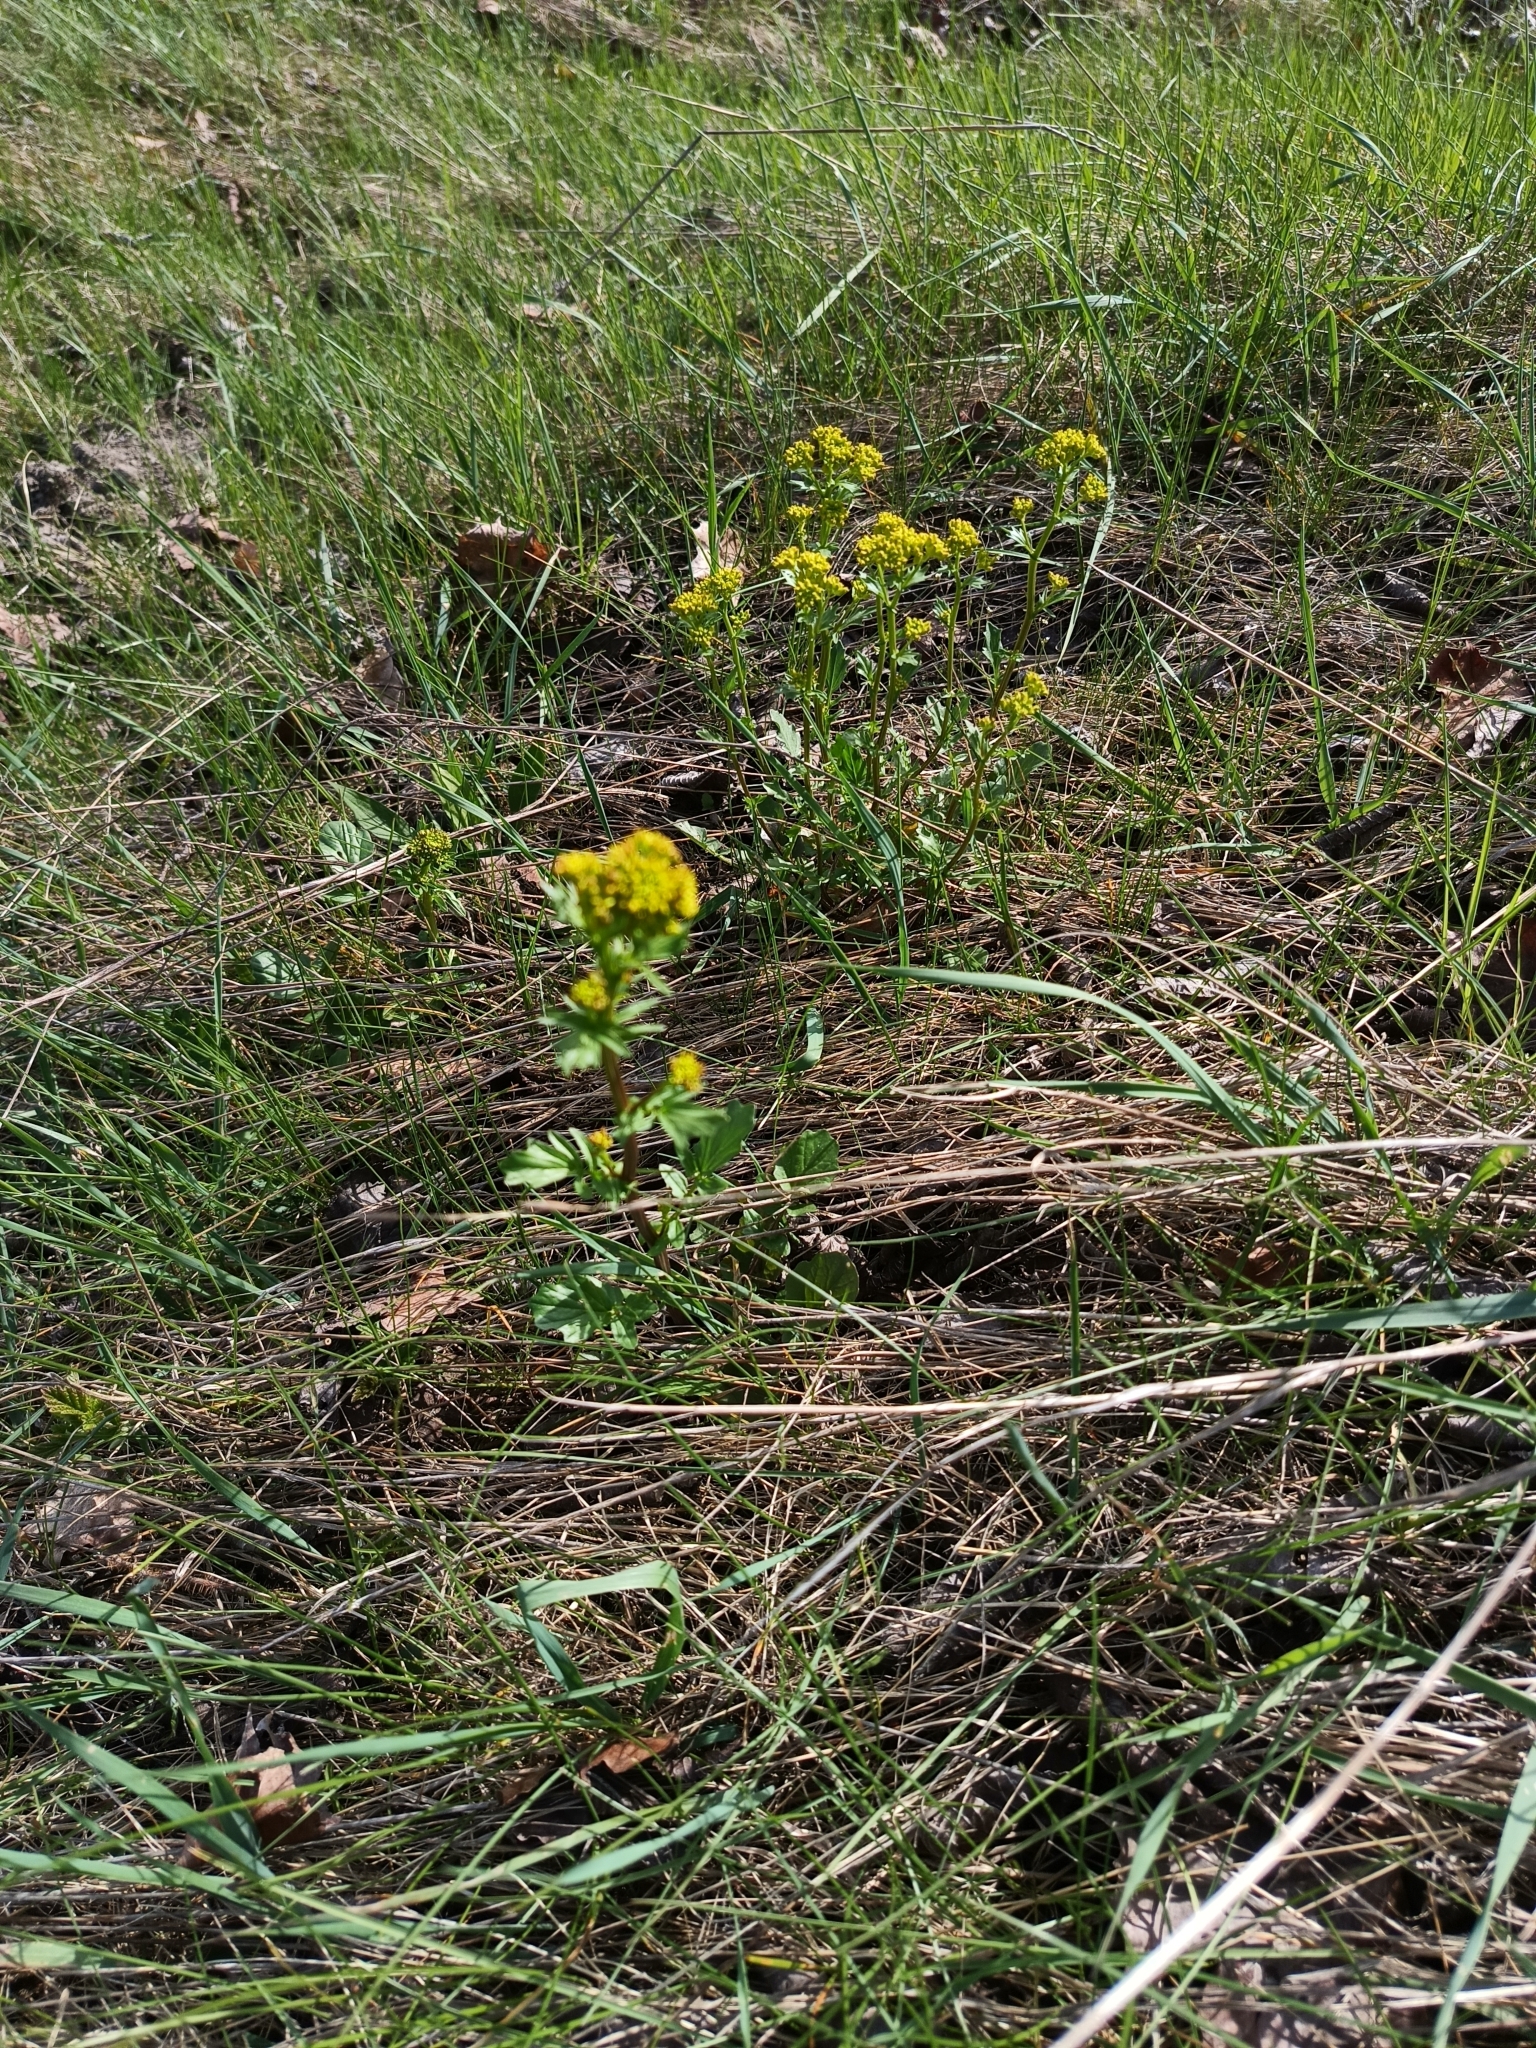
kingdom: Plantae
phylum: Tracheophyta
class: Magnoliopsida
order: Brassicales
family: Brassicaceae
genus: Barbarea
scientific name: Barbarea vulgaris
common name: Cressy-greens
